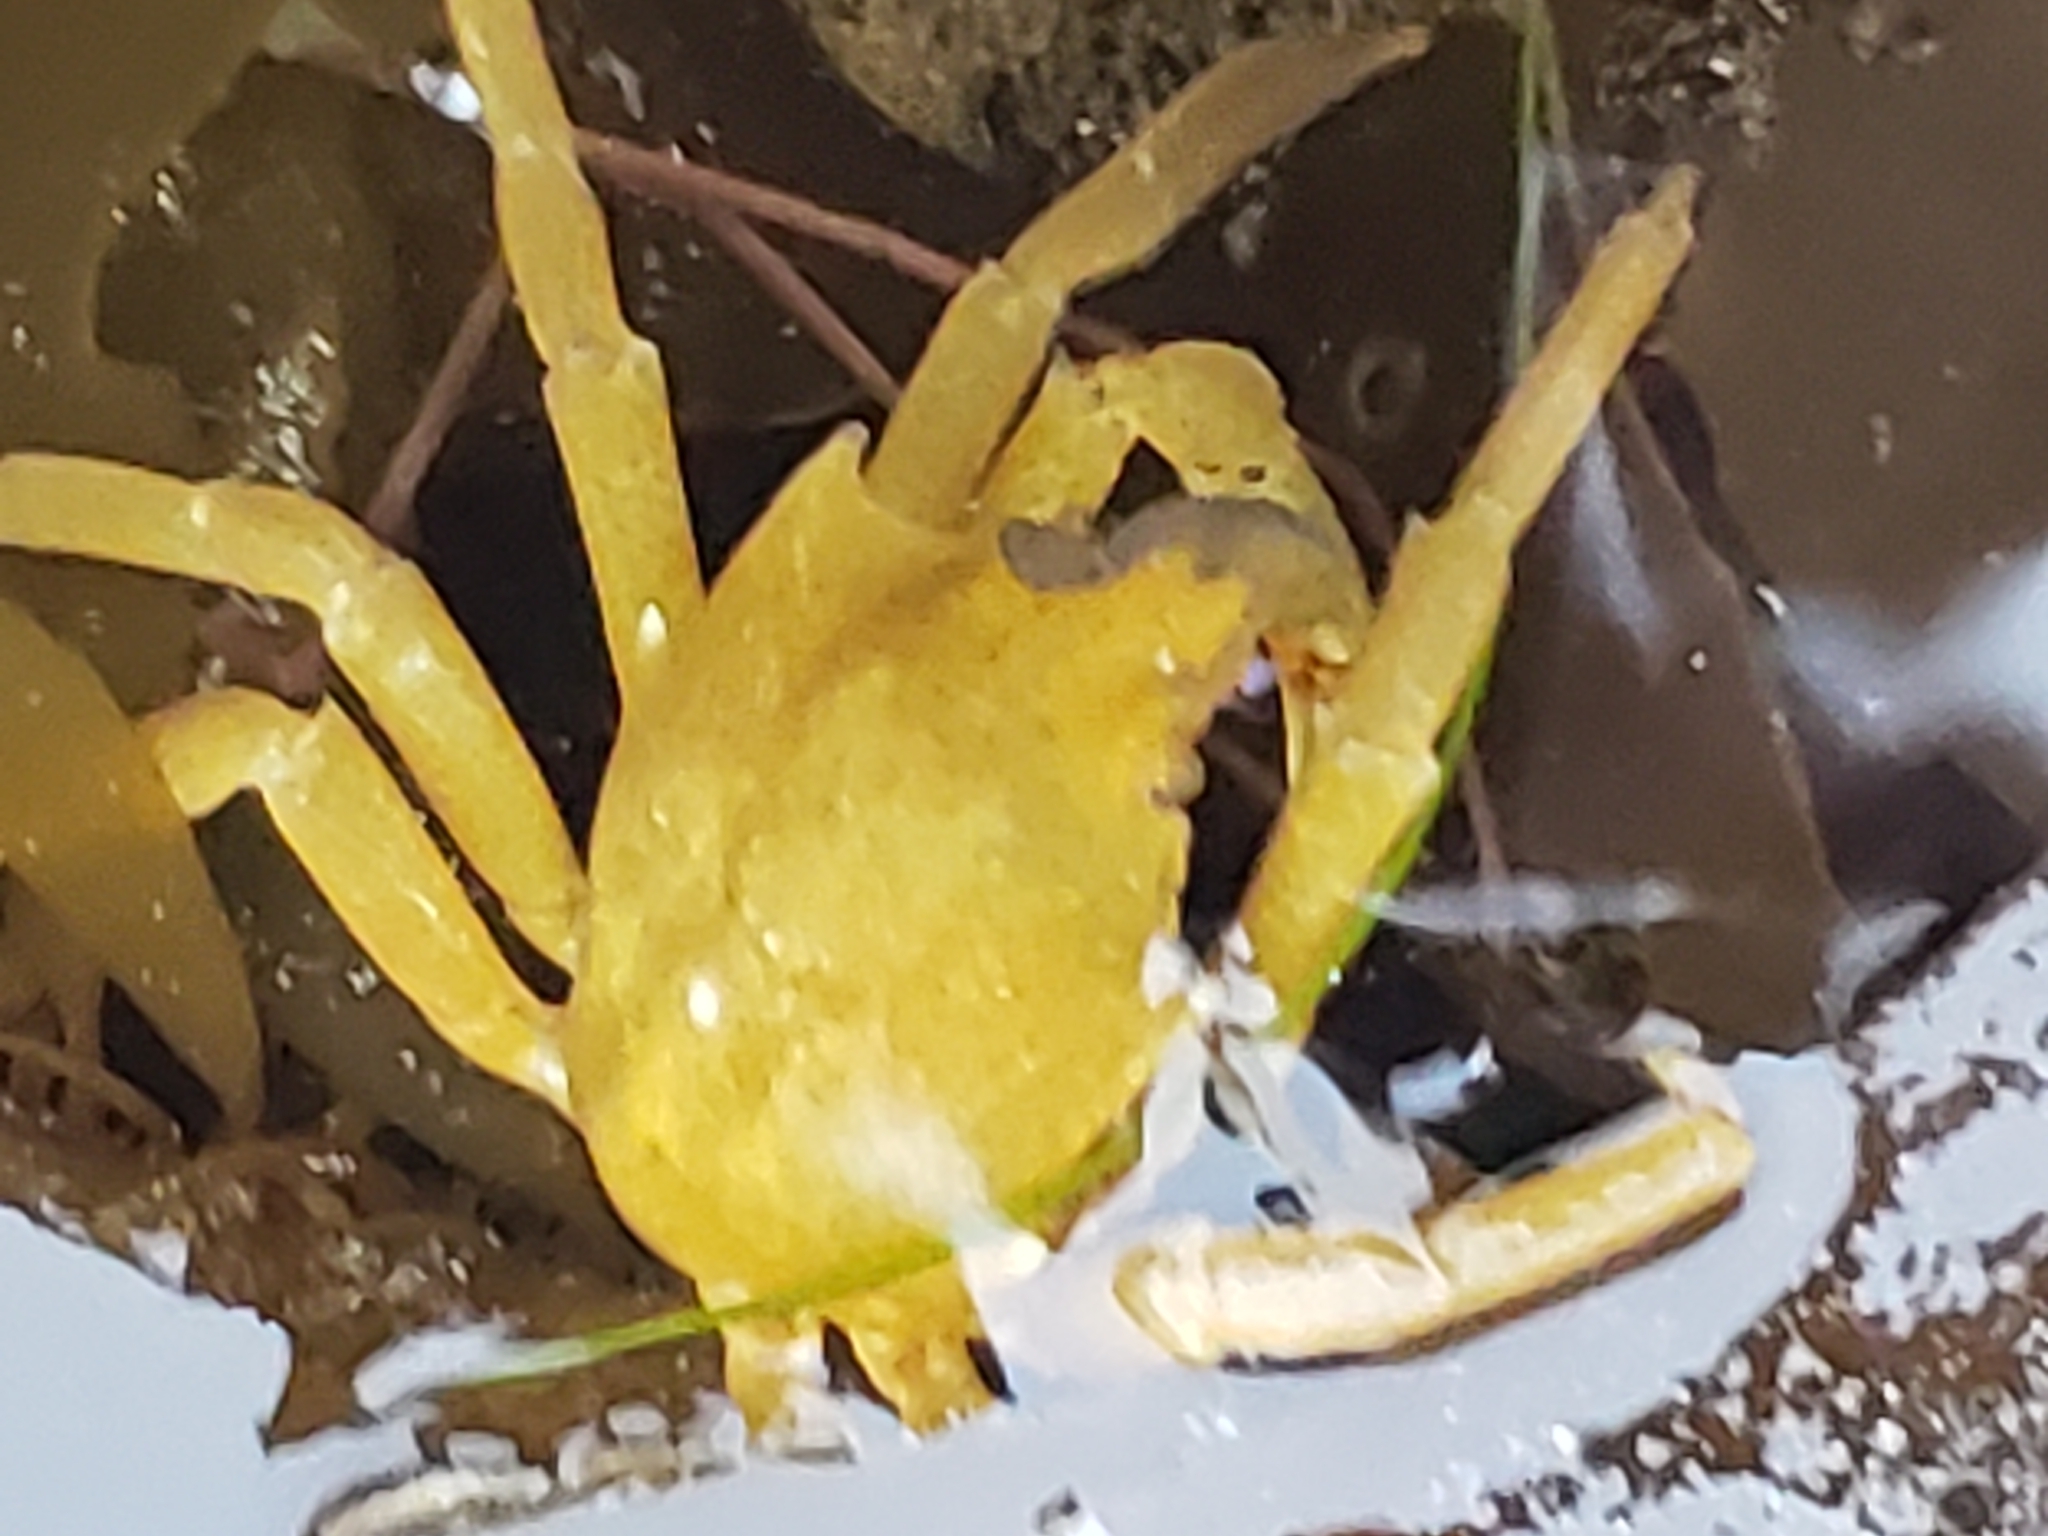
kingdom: Animalia
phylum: Arthropoda
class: Malacostraca
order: Decapoda
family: Epialtidae
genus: Pugettia
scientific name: Pugettia producta
